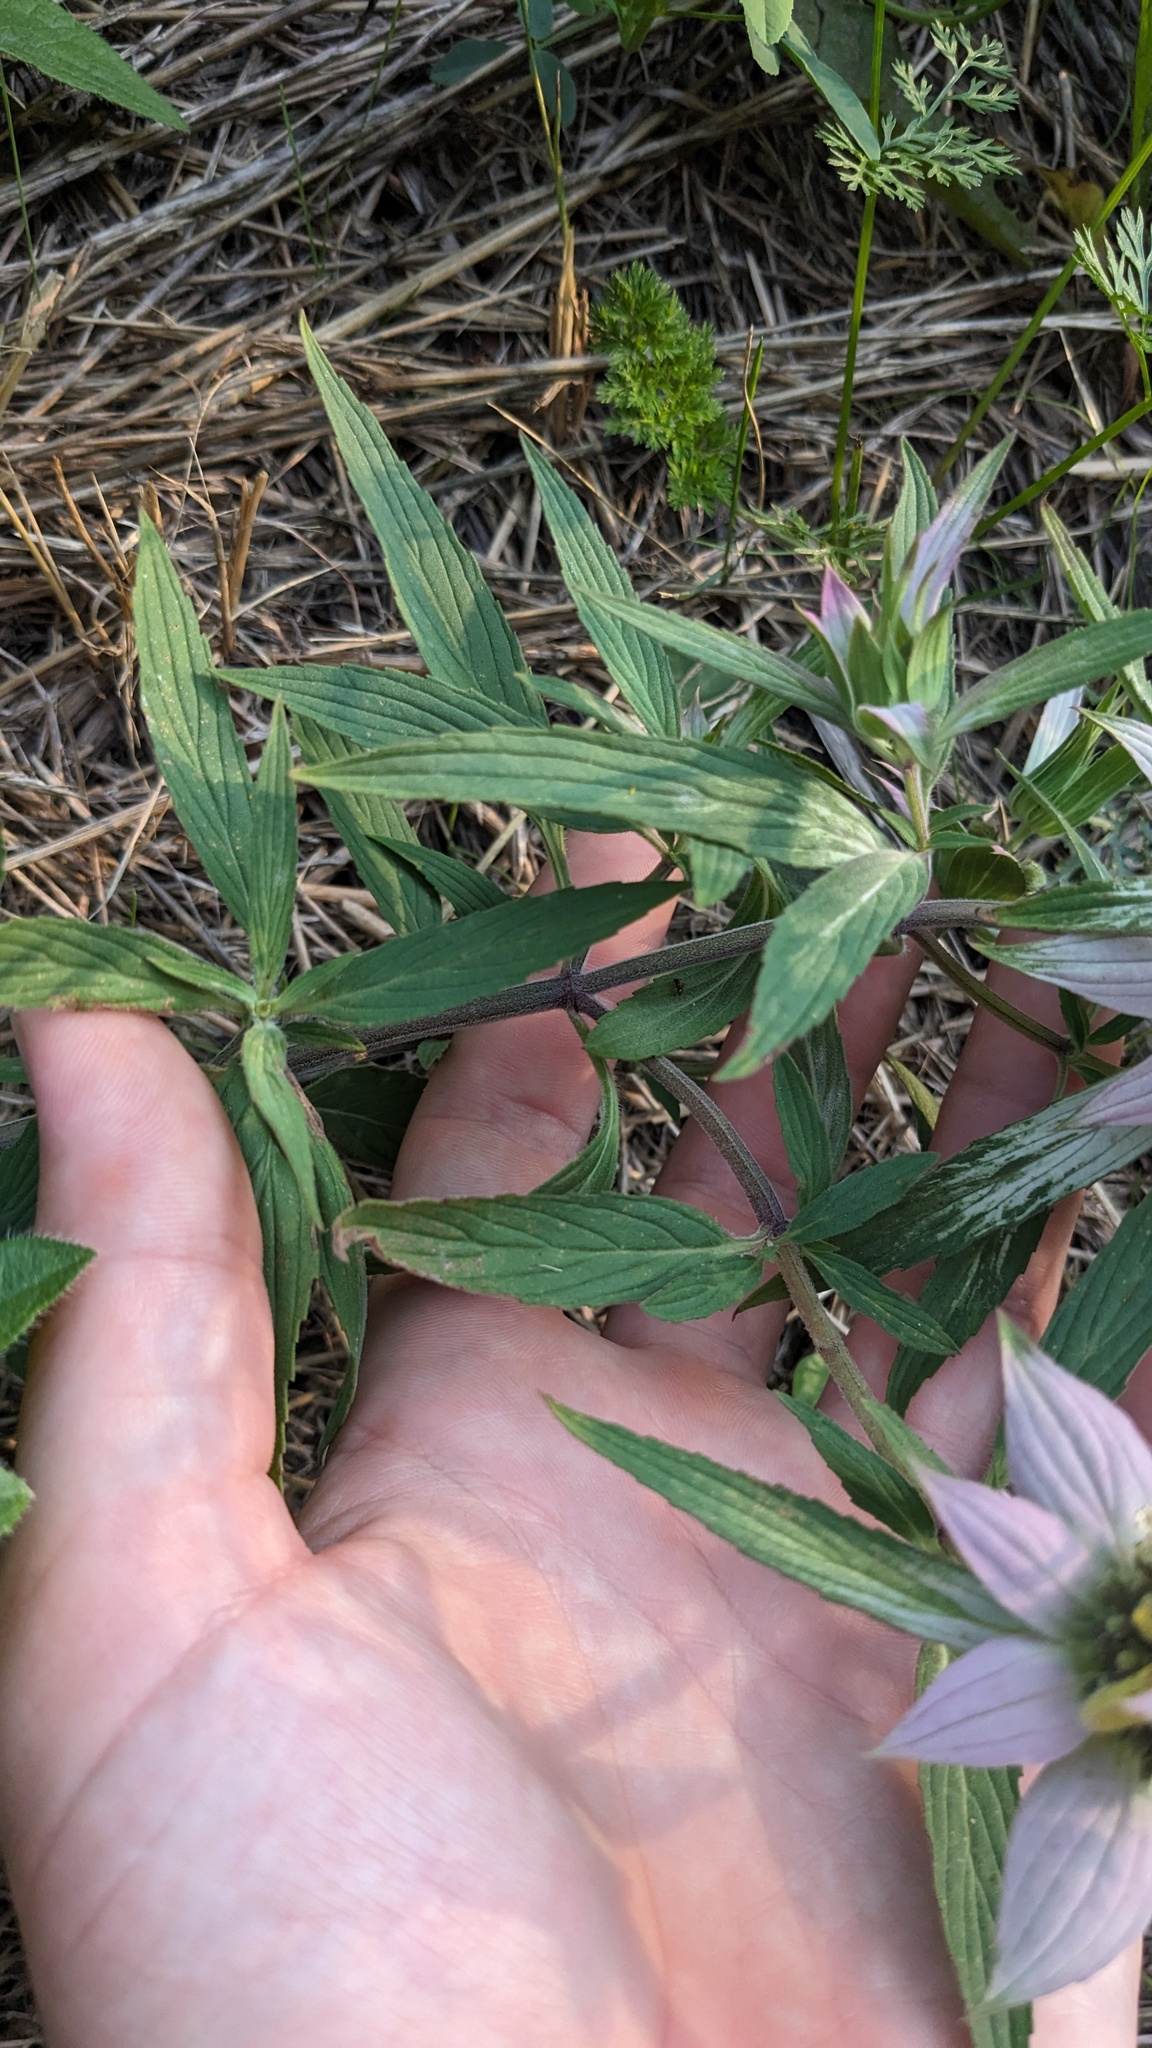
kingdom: Plantae
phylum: Tracheophyta
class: Magnoliopsida
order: Lamiales
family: Lamiaceae
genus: Monarda
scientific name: Monarda punctata
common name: Dotted monarda
